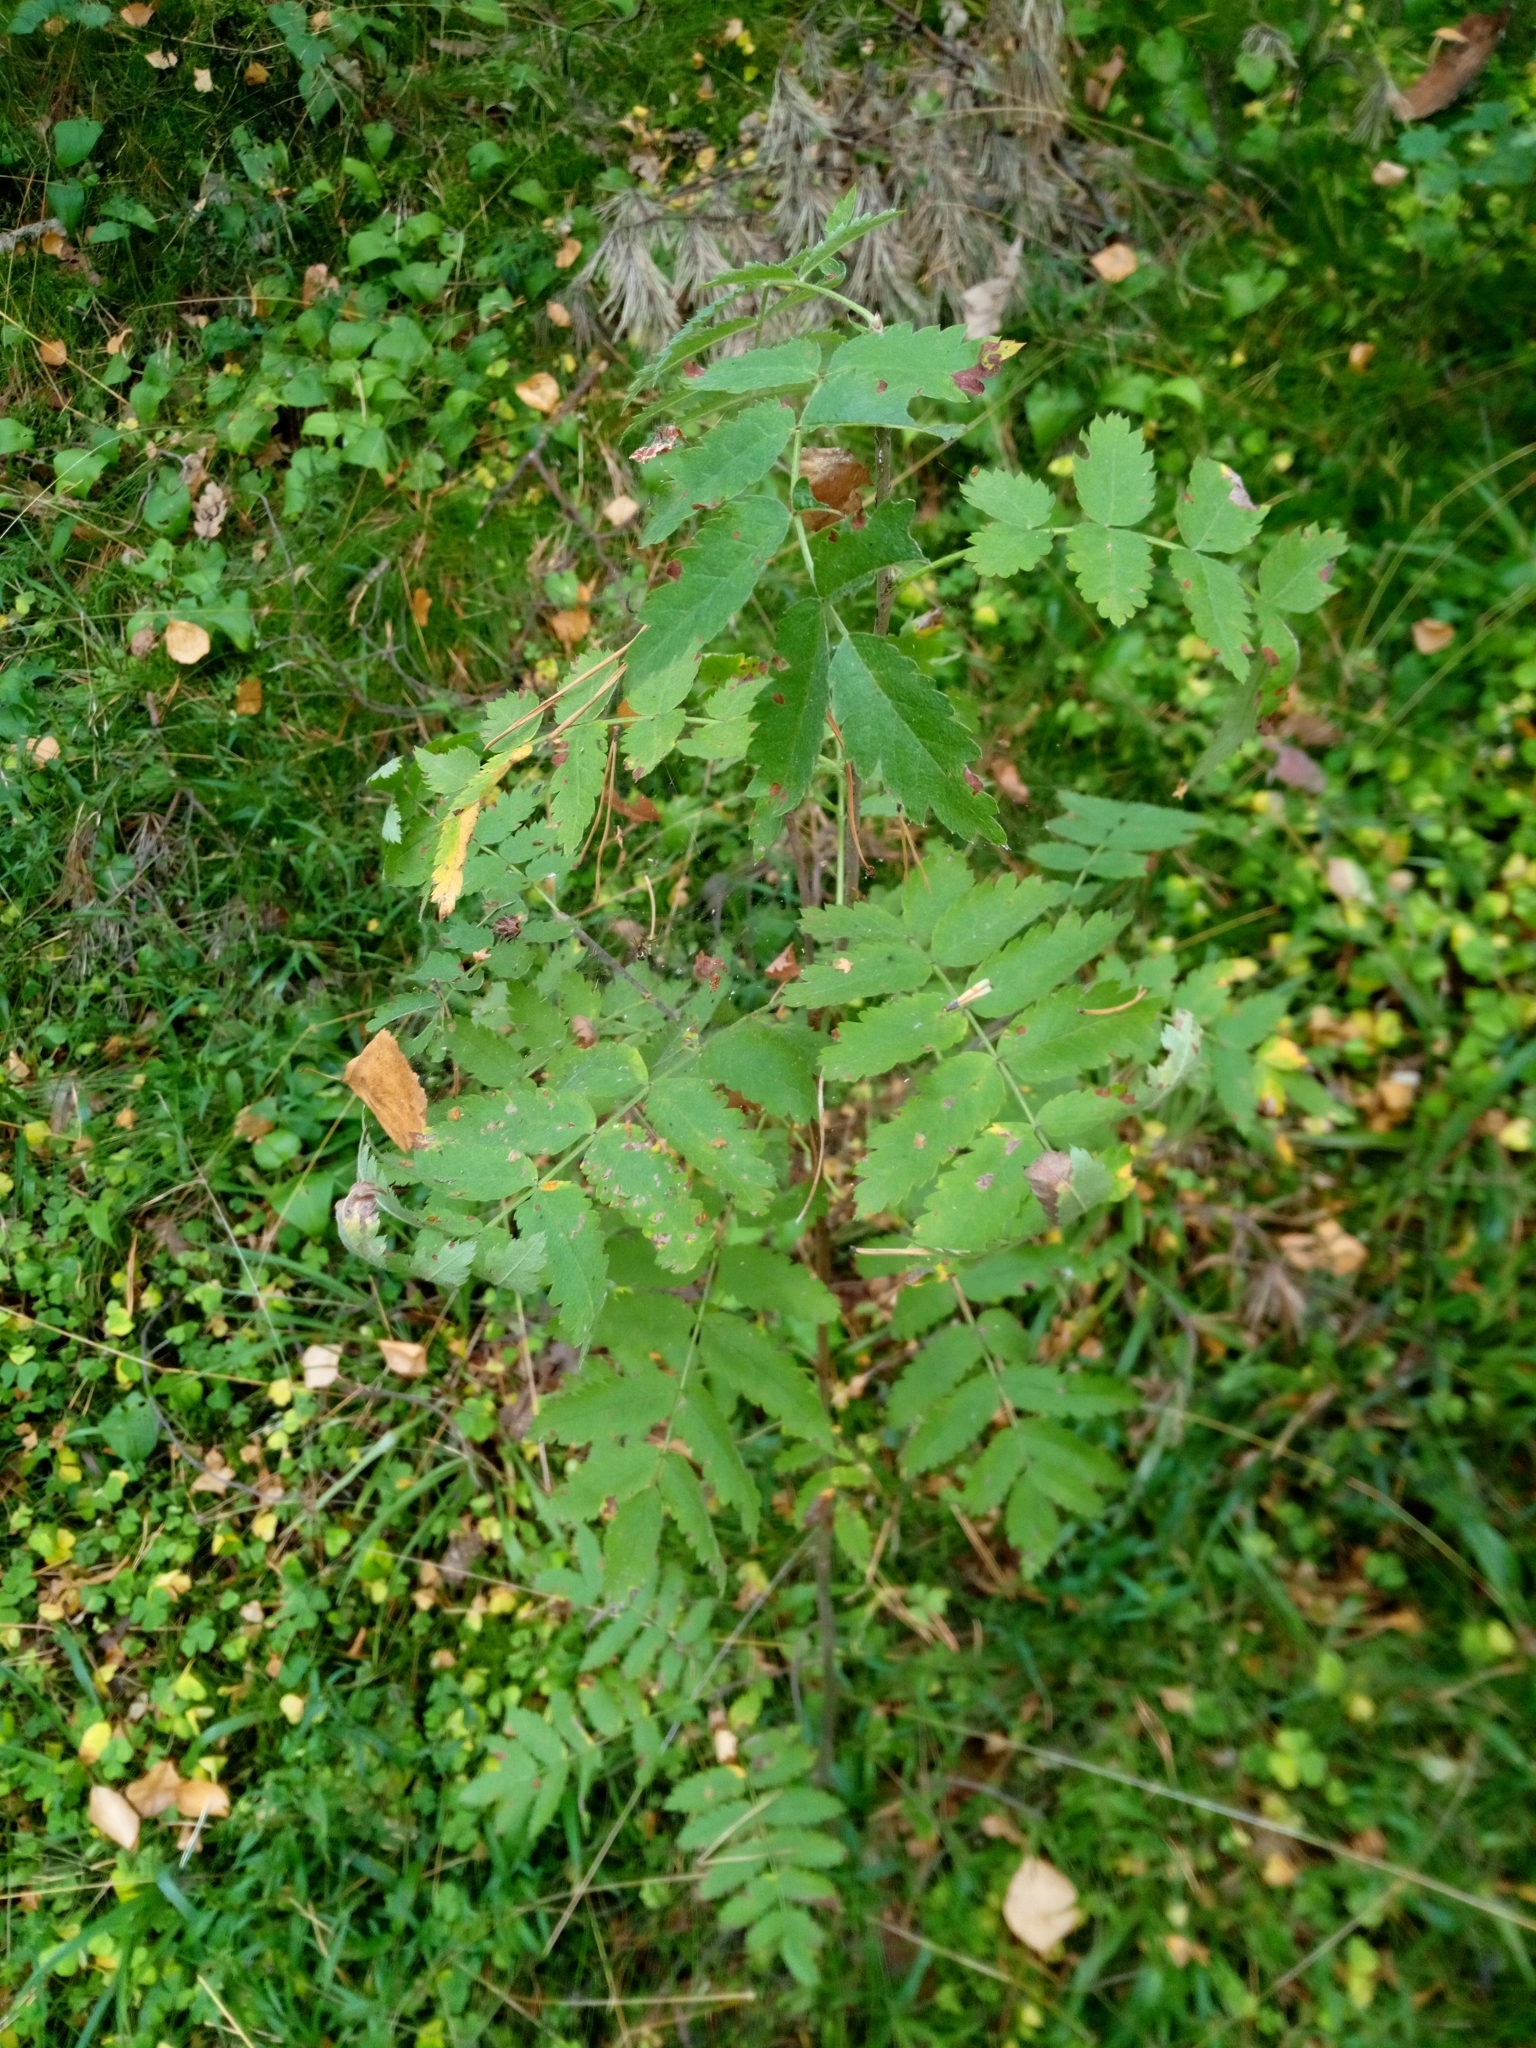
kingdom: Plantae
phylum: Tracheophyta
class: Magnoliopsida
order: Rosales
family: Rosaceae
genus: Sorbus
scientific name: Sorbus aucuparia
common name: Rowan
